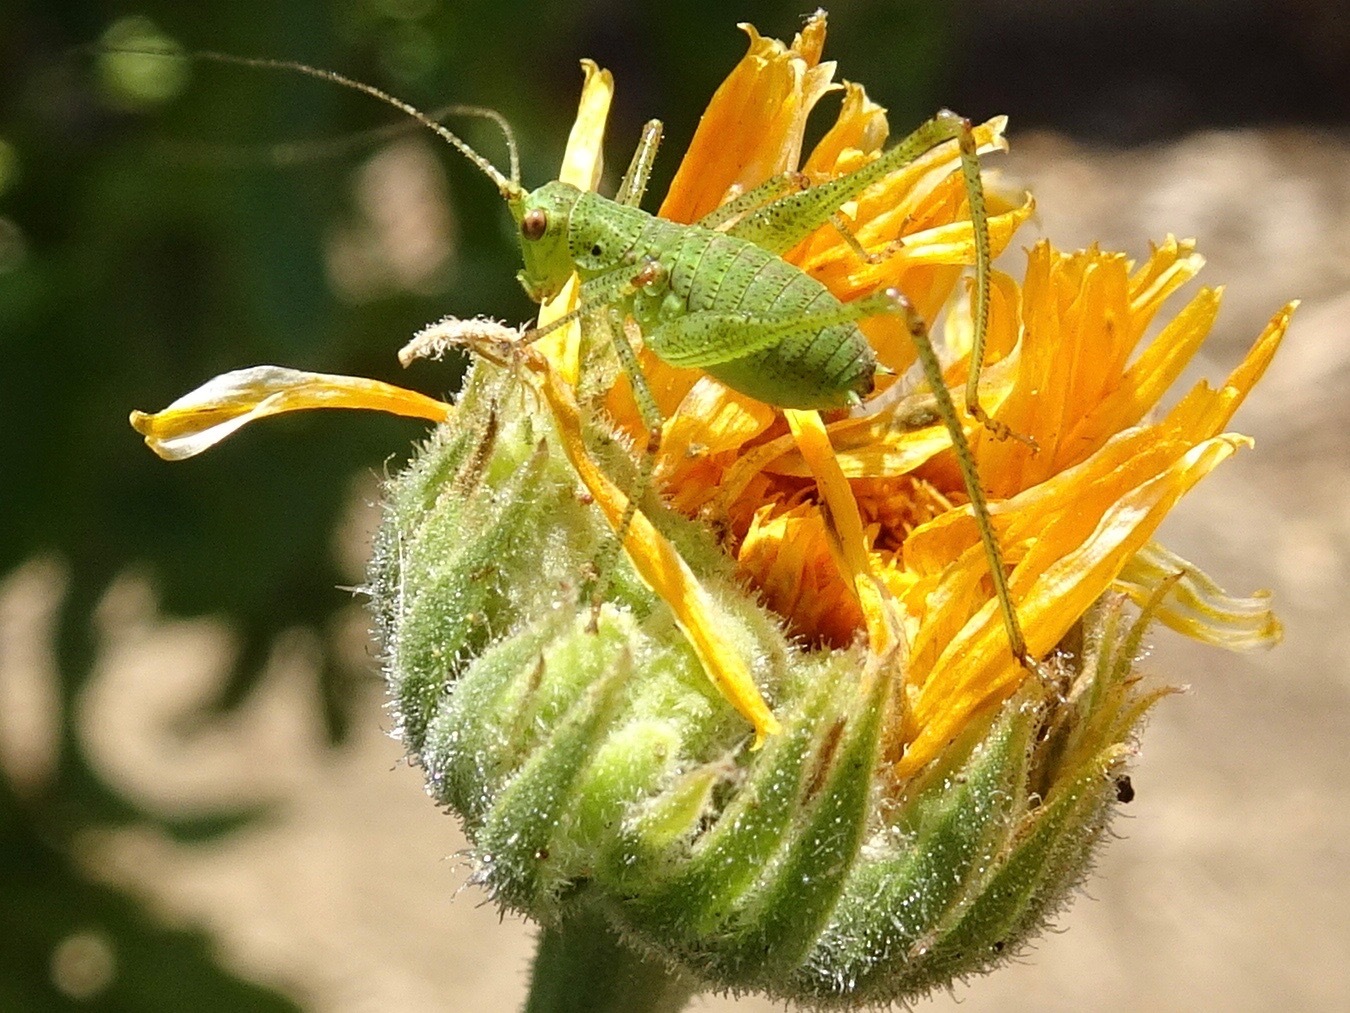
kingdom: Animalia
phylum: Arthropoda
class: Insecta
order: Orthoptera
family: Tettigoniidae
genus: Phaneroptera
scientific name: Phaneroptera nana
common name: Southern sickle bush-cricket
